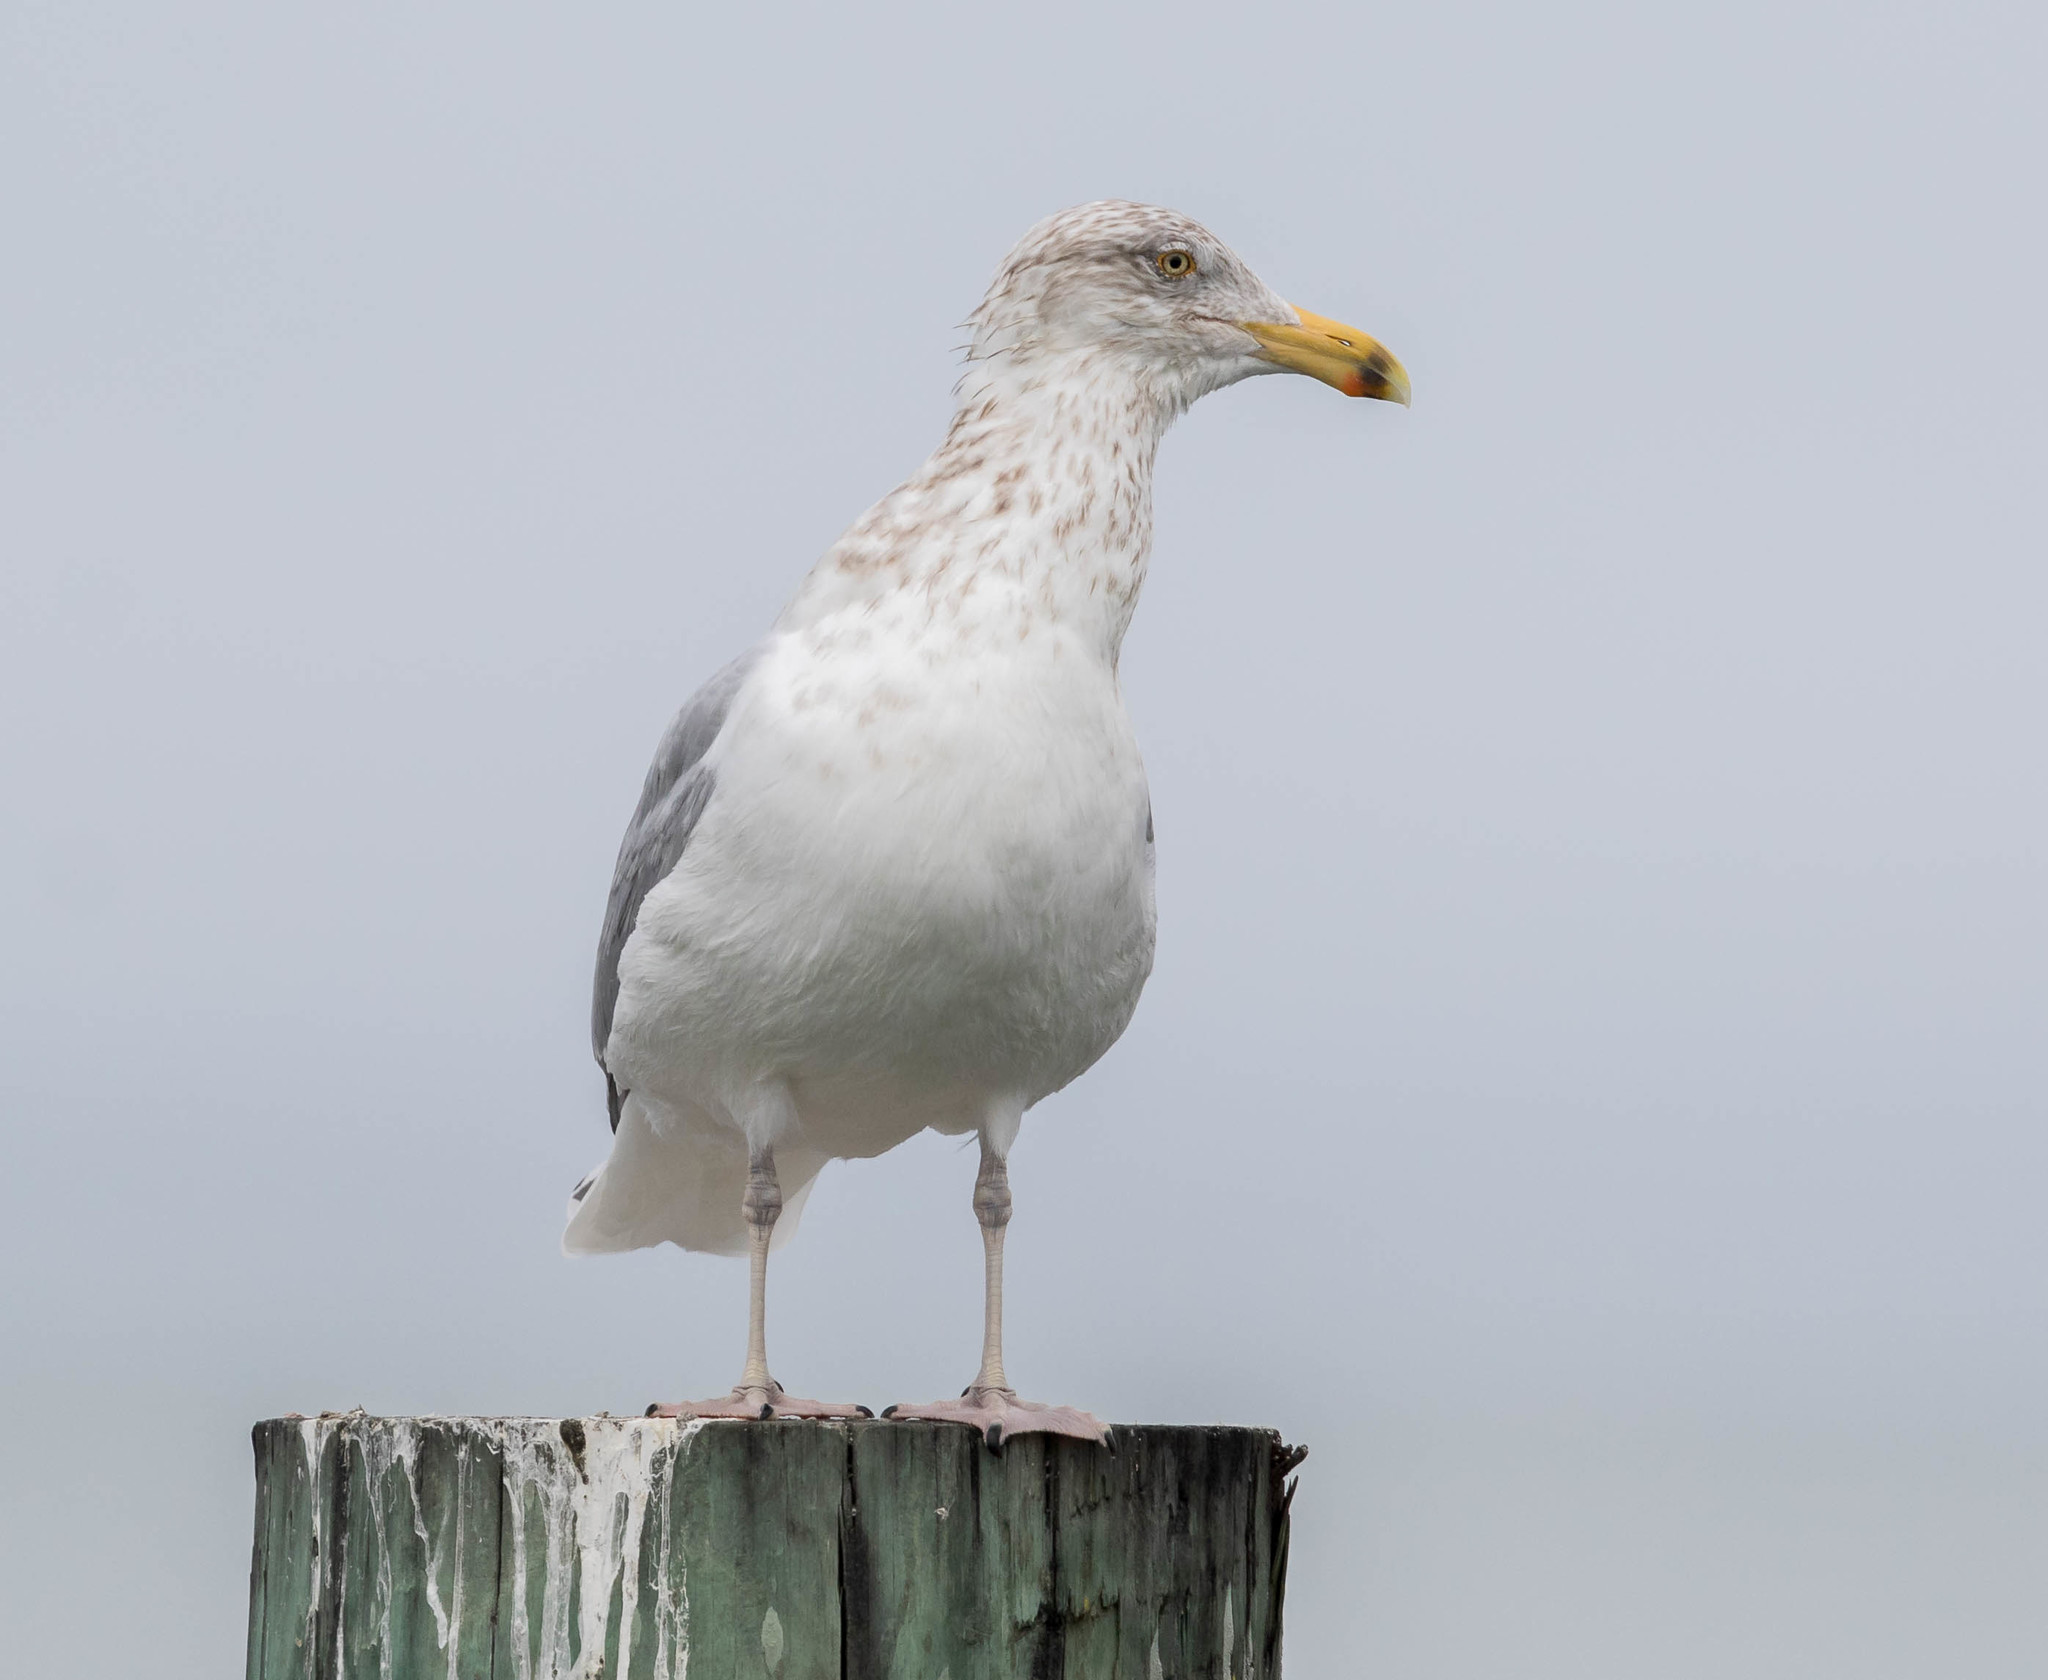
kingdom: Animalia
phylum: Chordata
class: Aves
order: Charadriiformes
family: Laridae
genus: Larus
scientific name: Larus argentatus
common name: Herring gull
